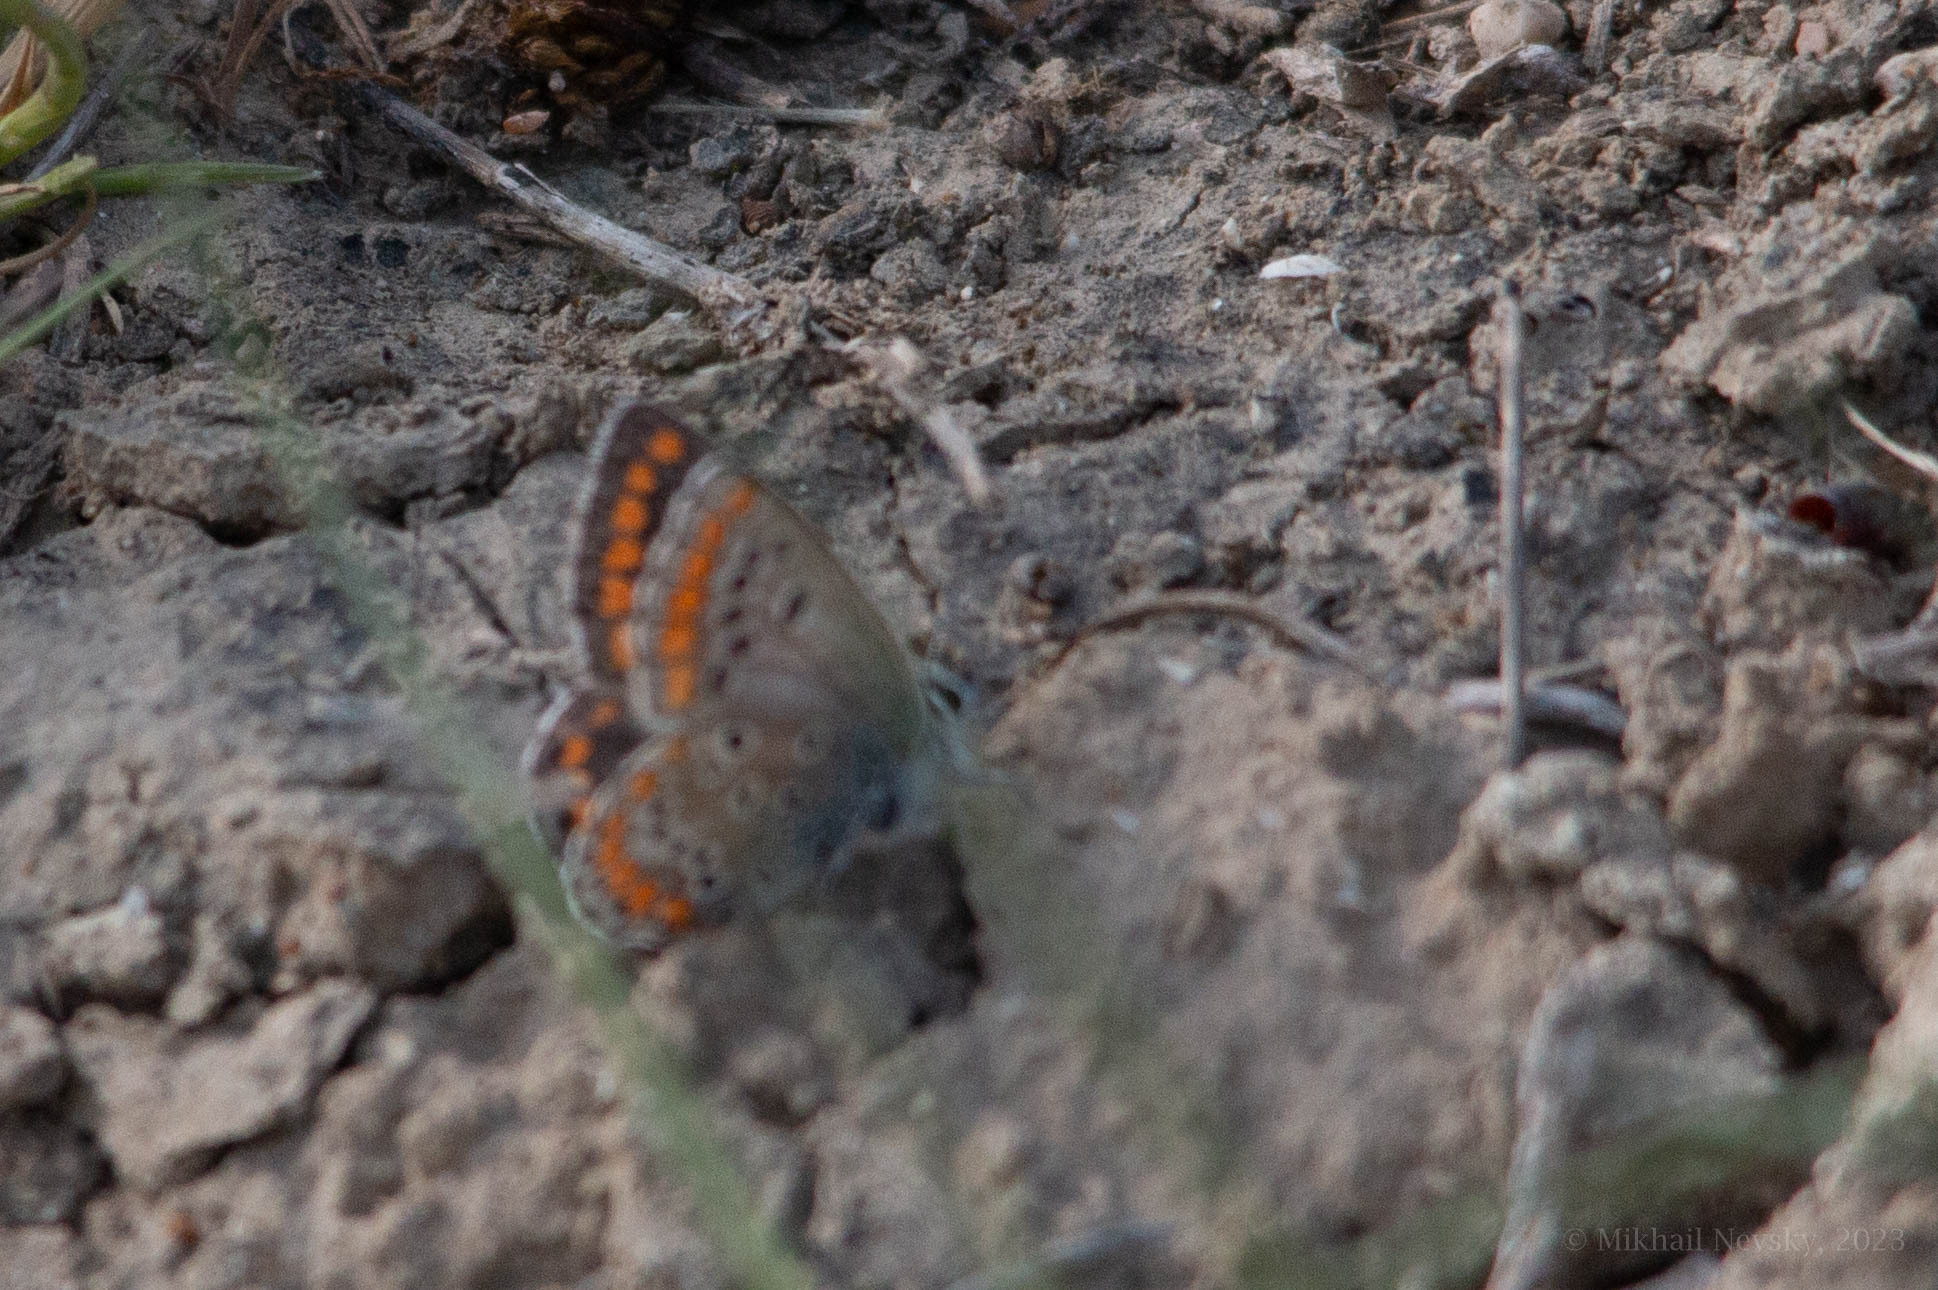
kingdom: Animalia
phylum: Arthropoda
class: Insecta
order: Lepidoptera
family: Lycaenidae
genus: Aricia
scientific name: Aricia agestis
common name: Brown argus
